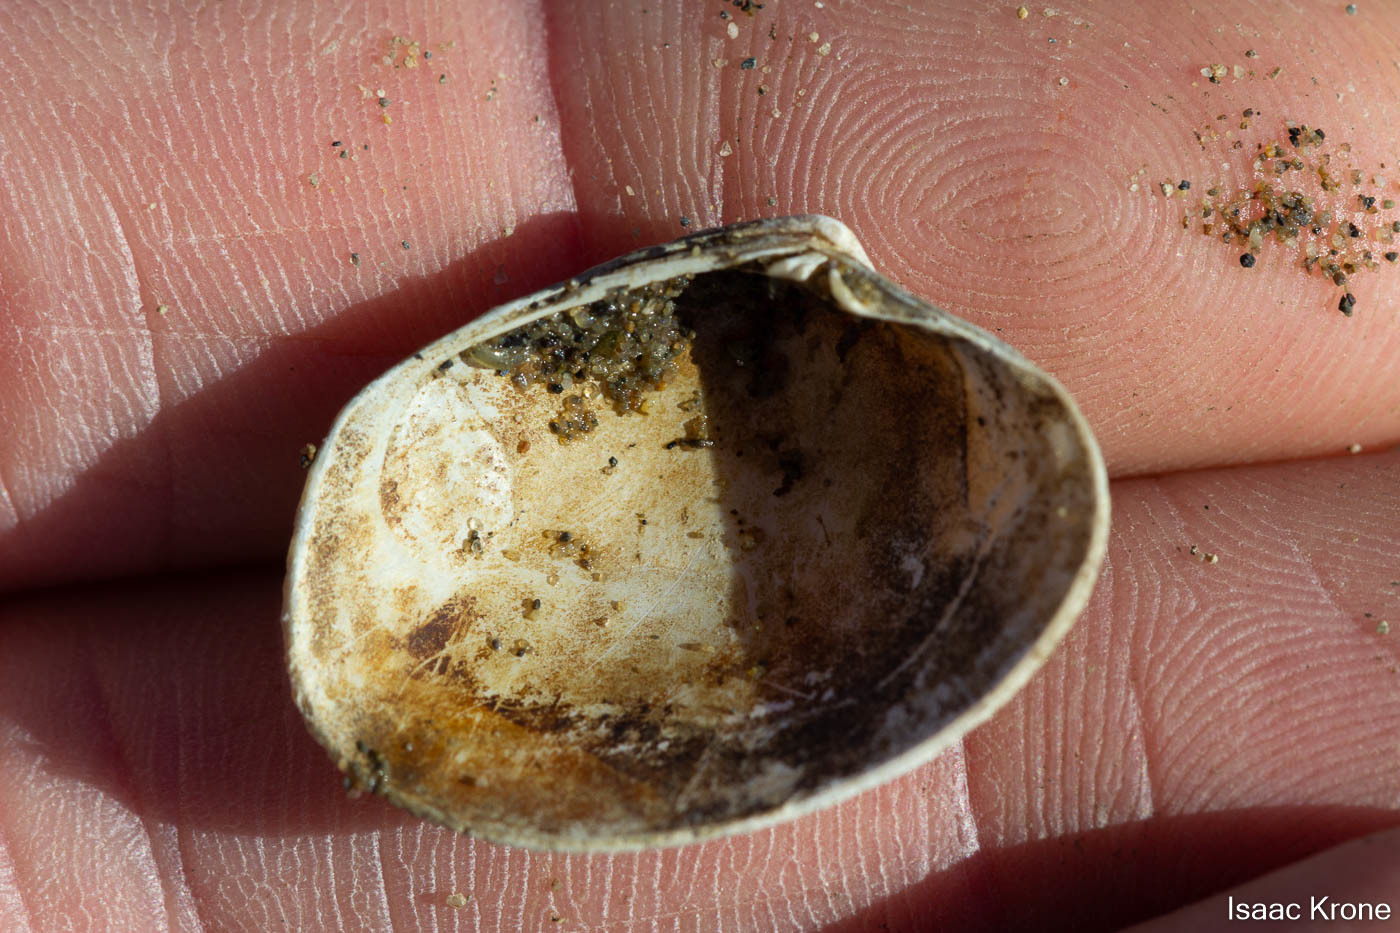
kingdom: Animalia
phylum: Mollusca
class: Bivalvia
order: Venerida
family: Veneridae
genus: Ruditapes
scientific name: Ruditapes philippinarum
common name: Manila clam
